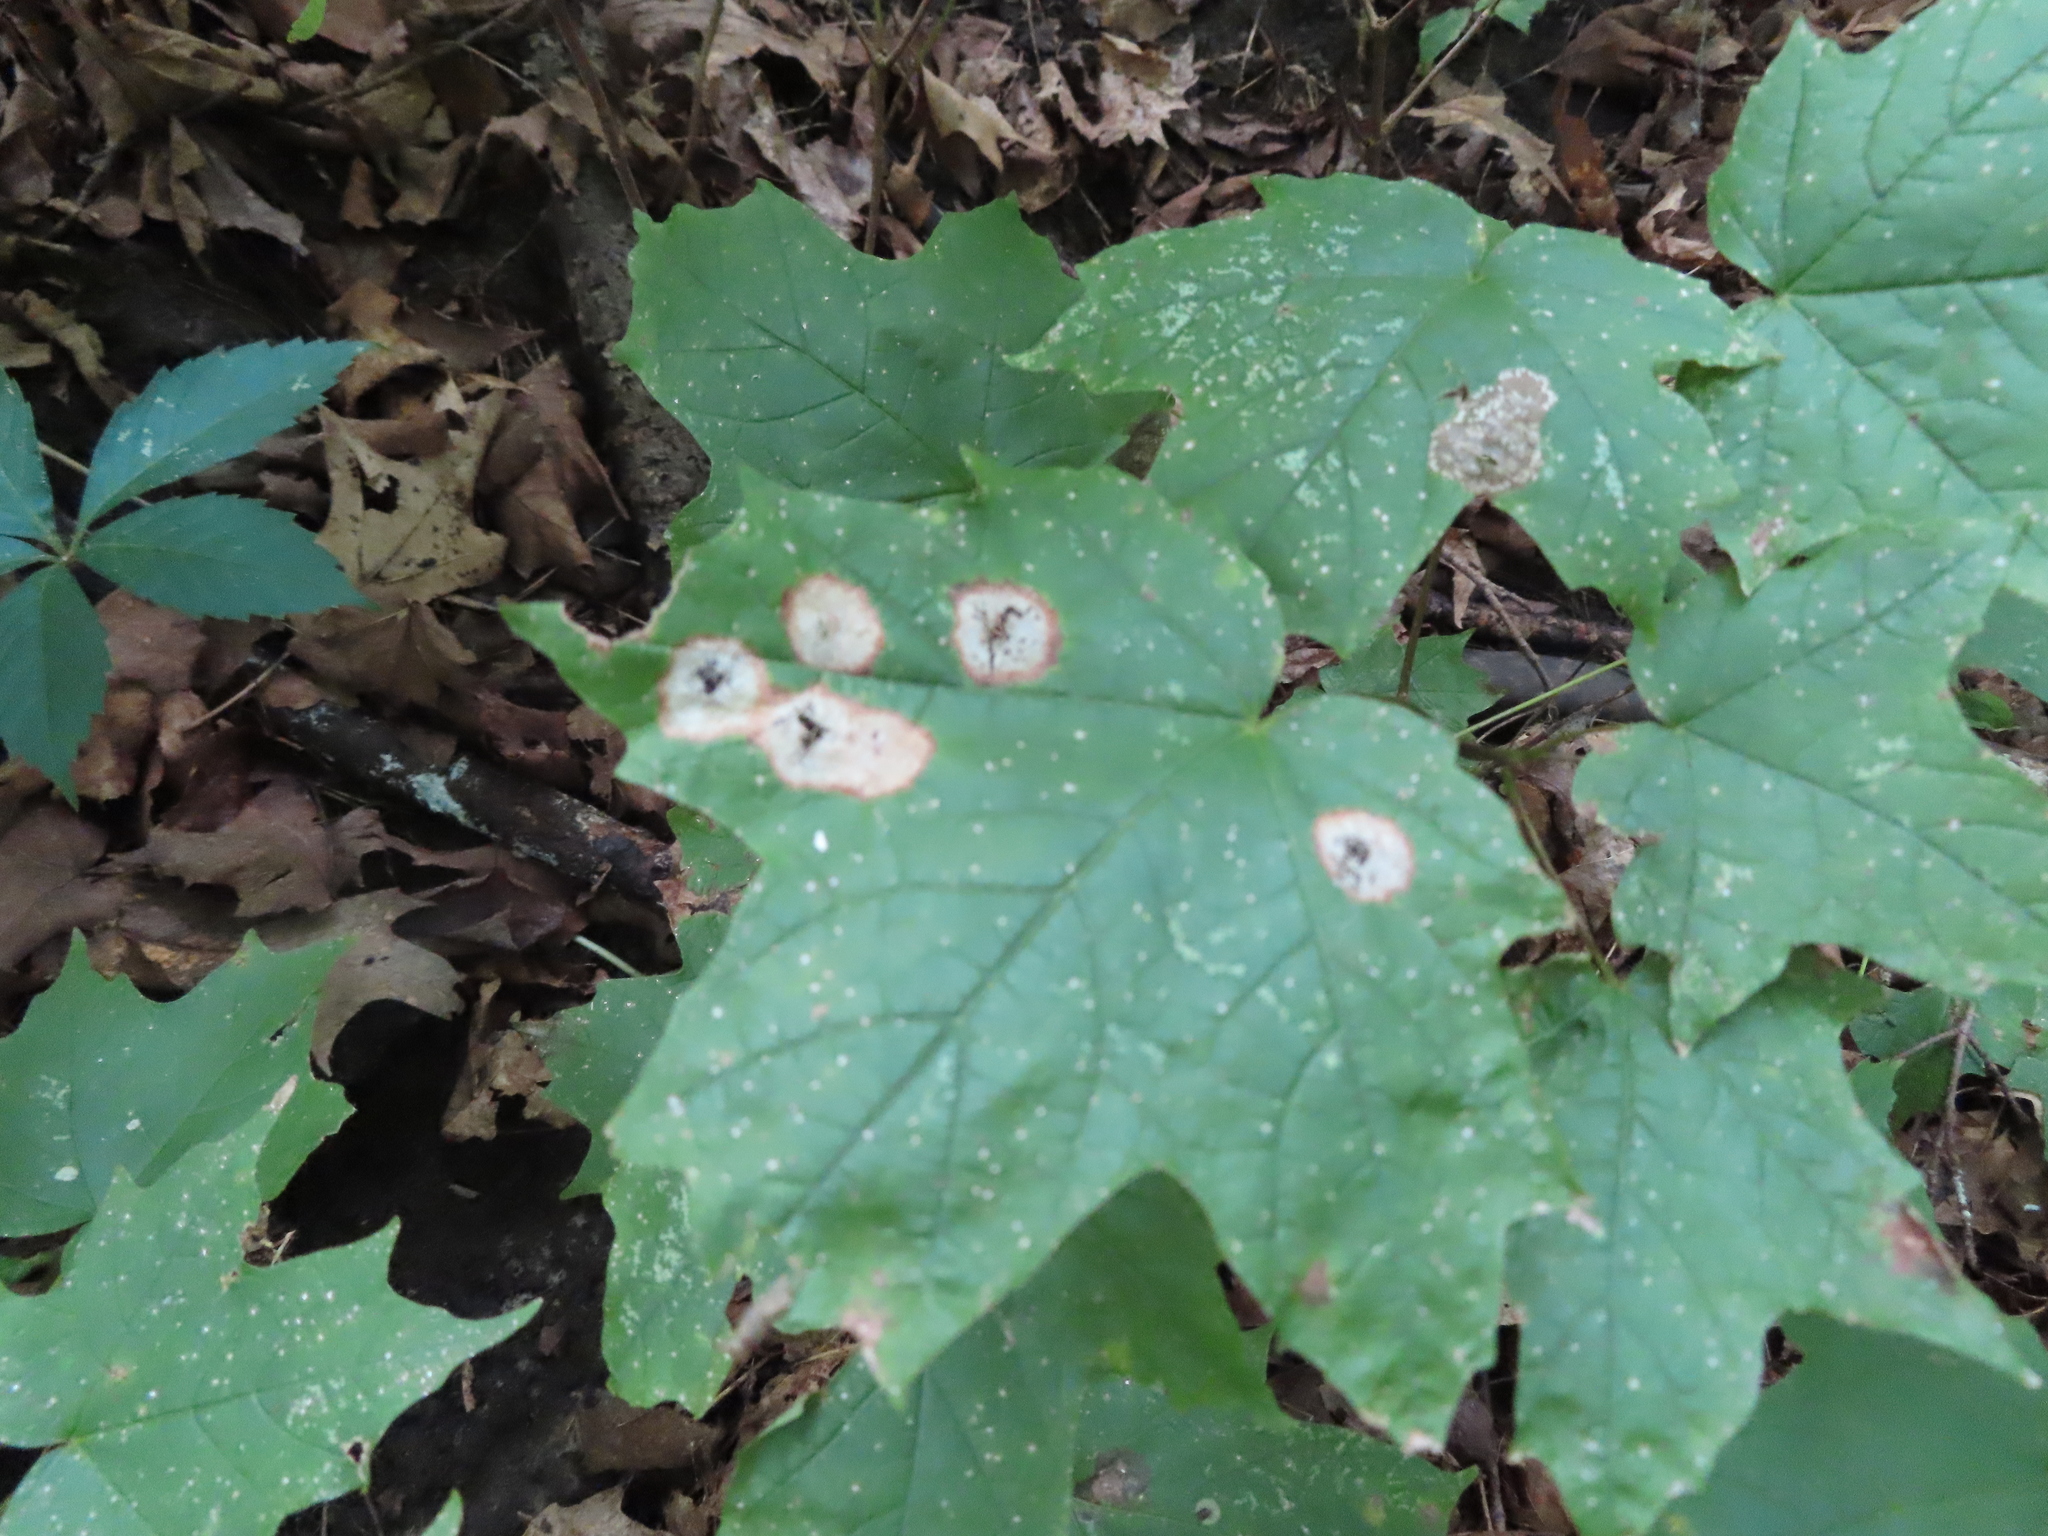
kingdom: Animalia
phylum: Arthropoda
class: Insecta
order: Diptera
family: Cecidomyiidae
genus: Acericecis
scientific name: Acericecis ocellaris
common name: Ocellate gall midge
